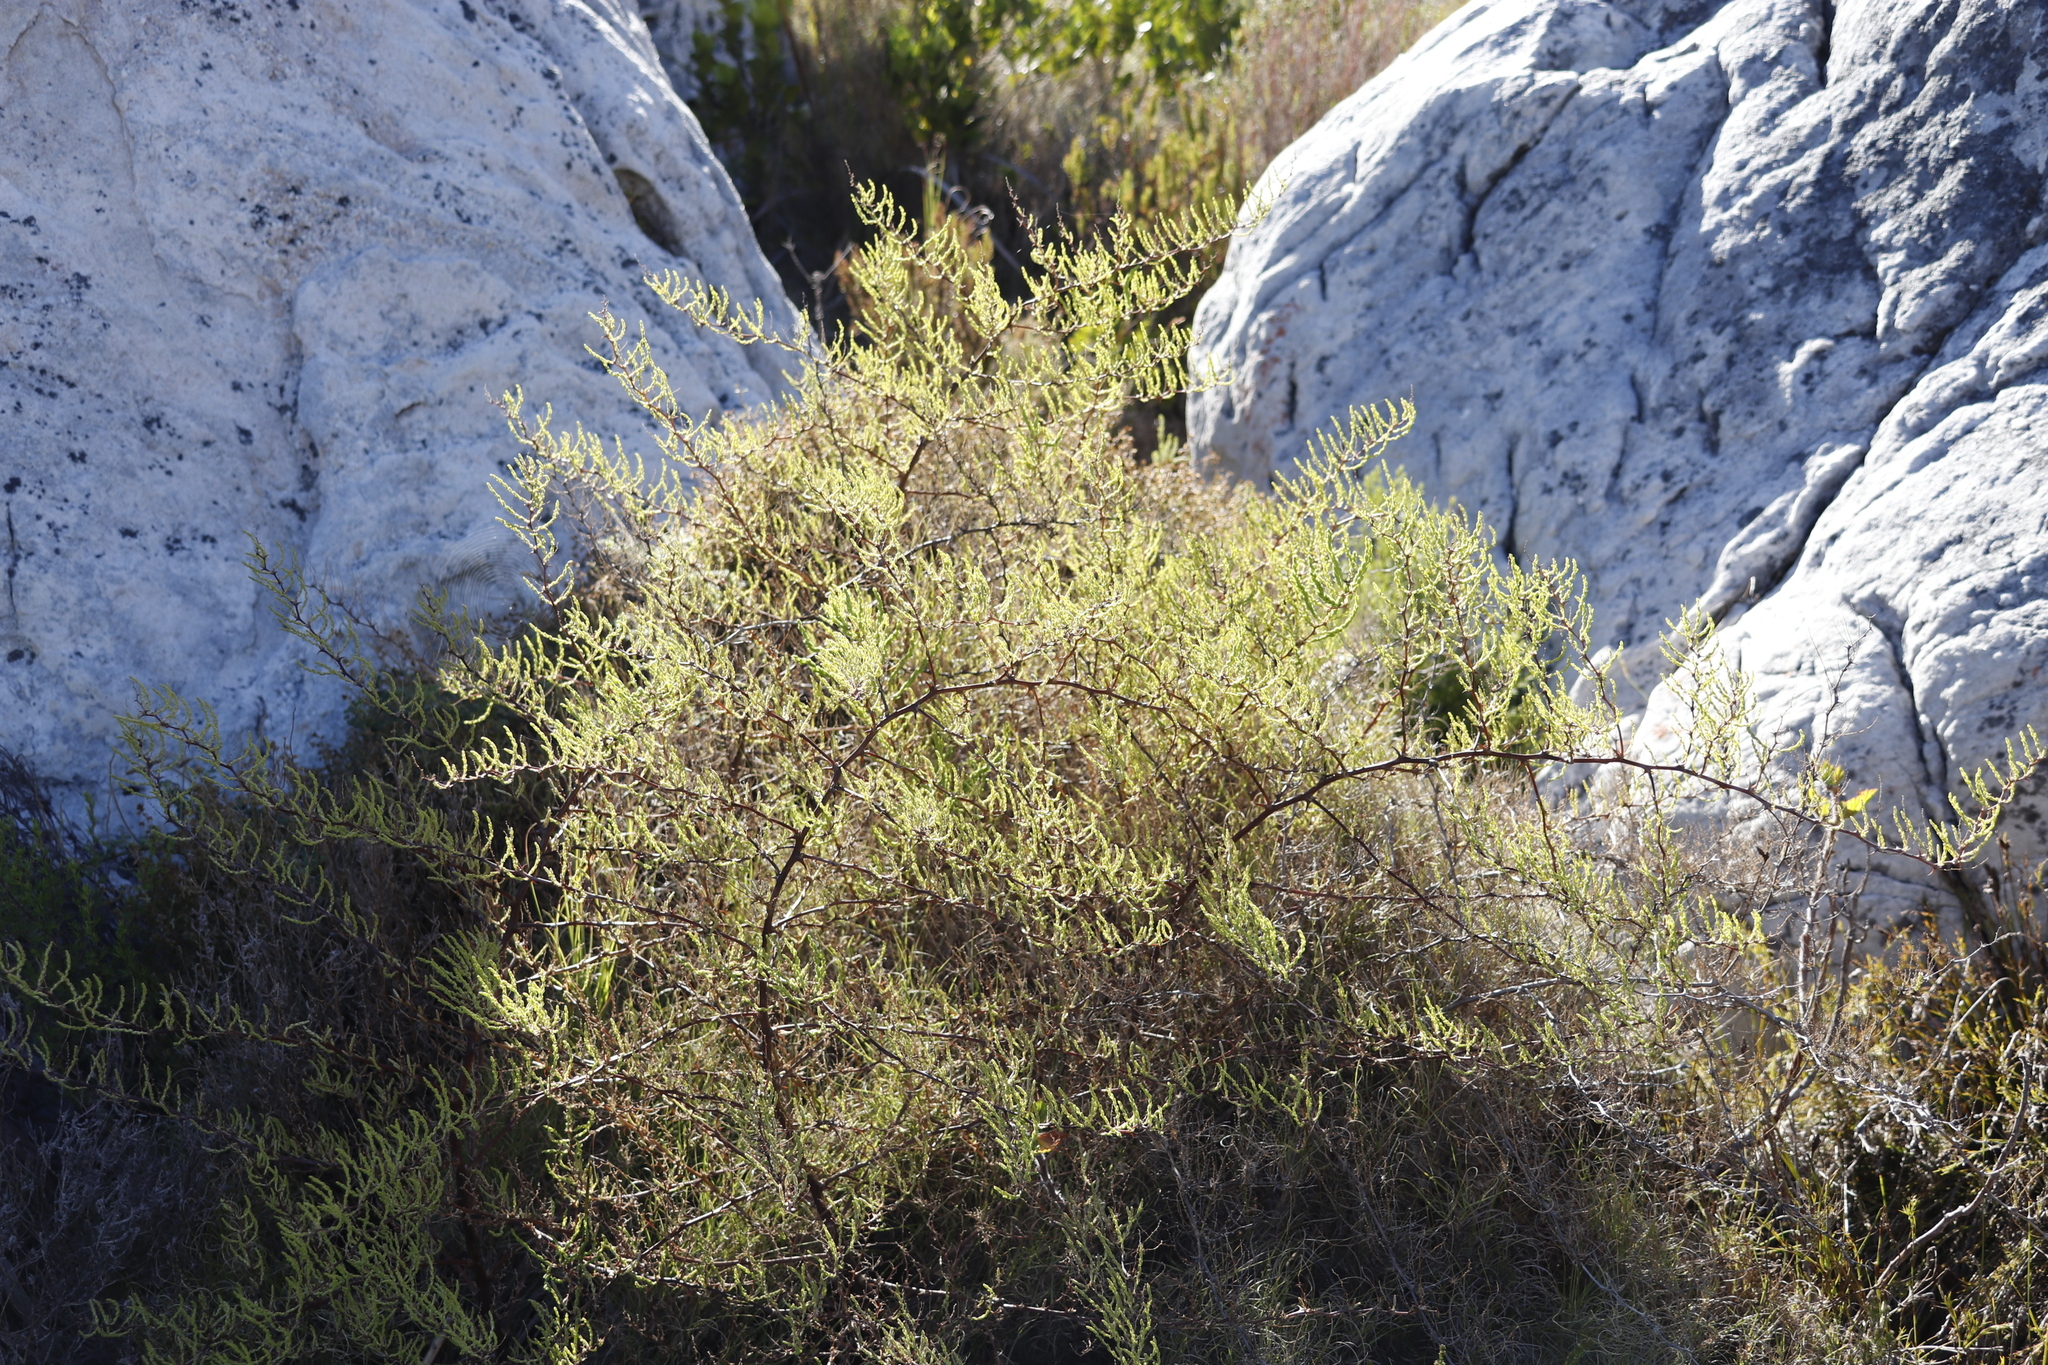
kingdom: Plantae
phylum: Tracheophyta
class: Liliopsida
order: Asparagales
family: Asparagaceae
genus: Asparagus
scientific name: Asparagus rubicundus
